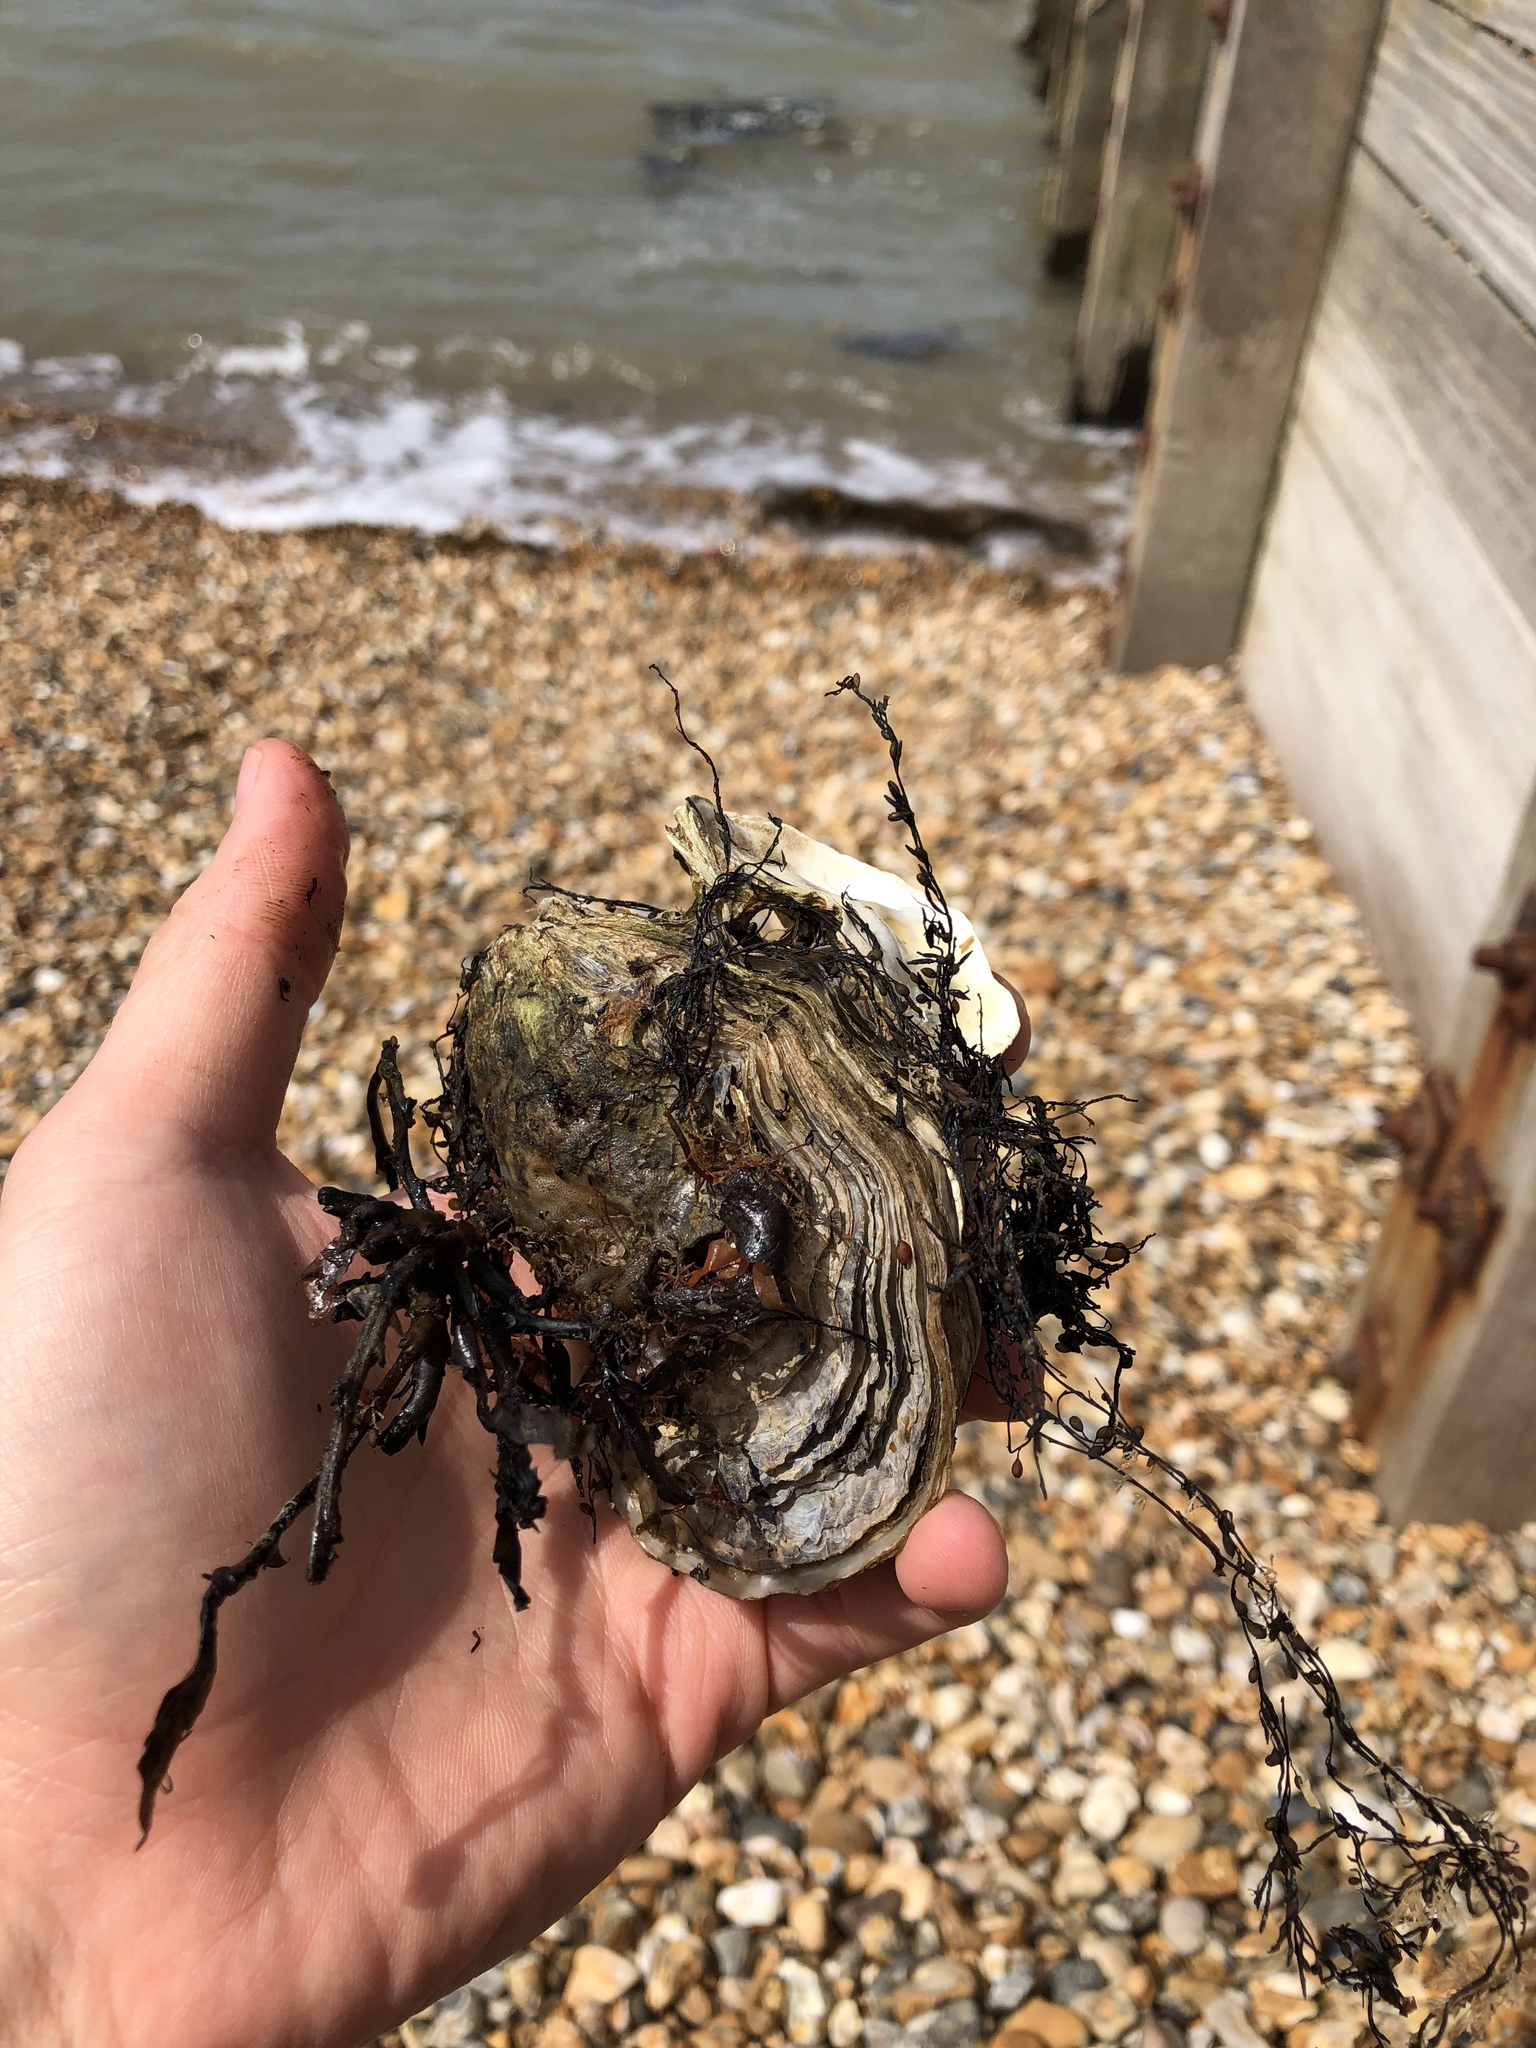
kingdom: Animalia
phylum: Mollusca
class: Bivalvia
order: Ostreida
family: Ostreidae
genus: Magallana
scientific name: Magallana gigas
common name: Pacific oyster
